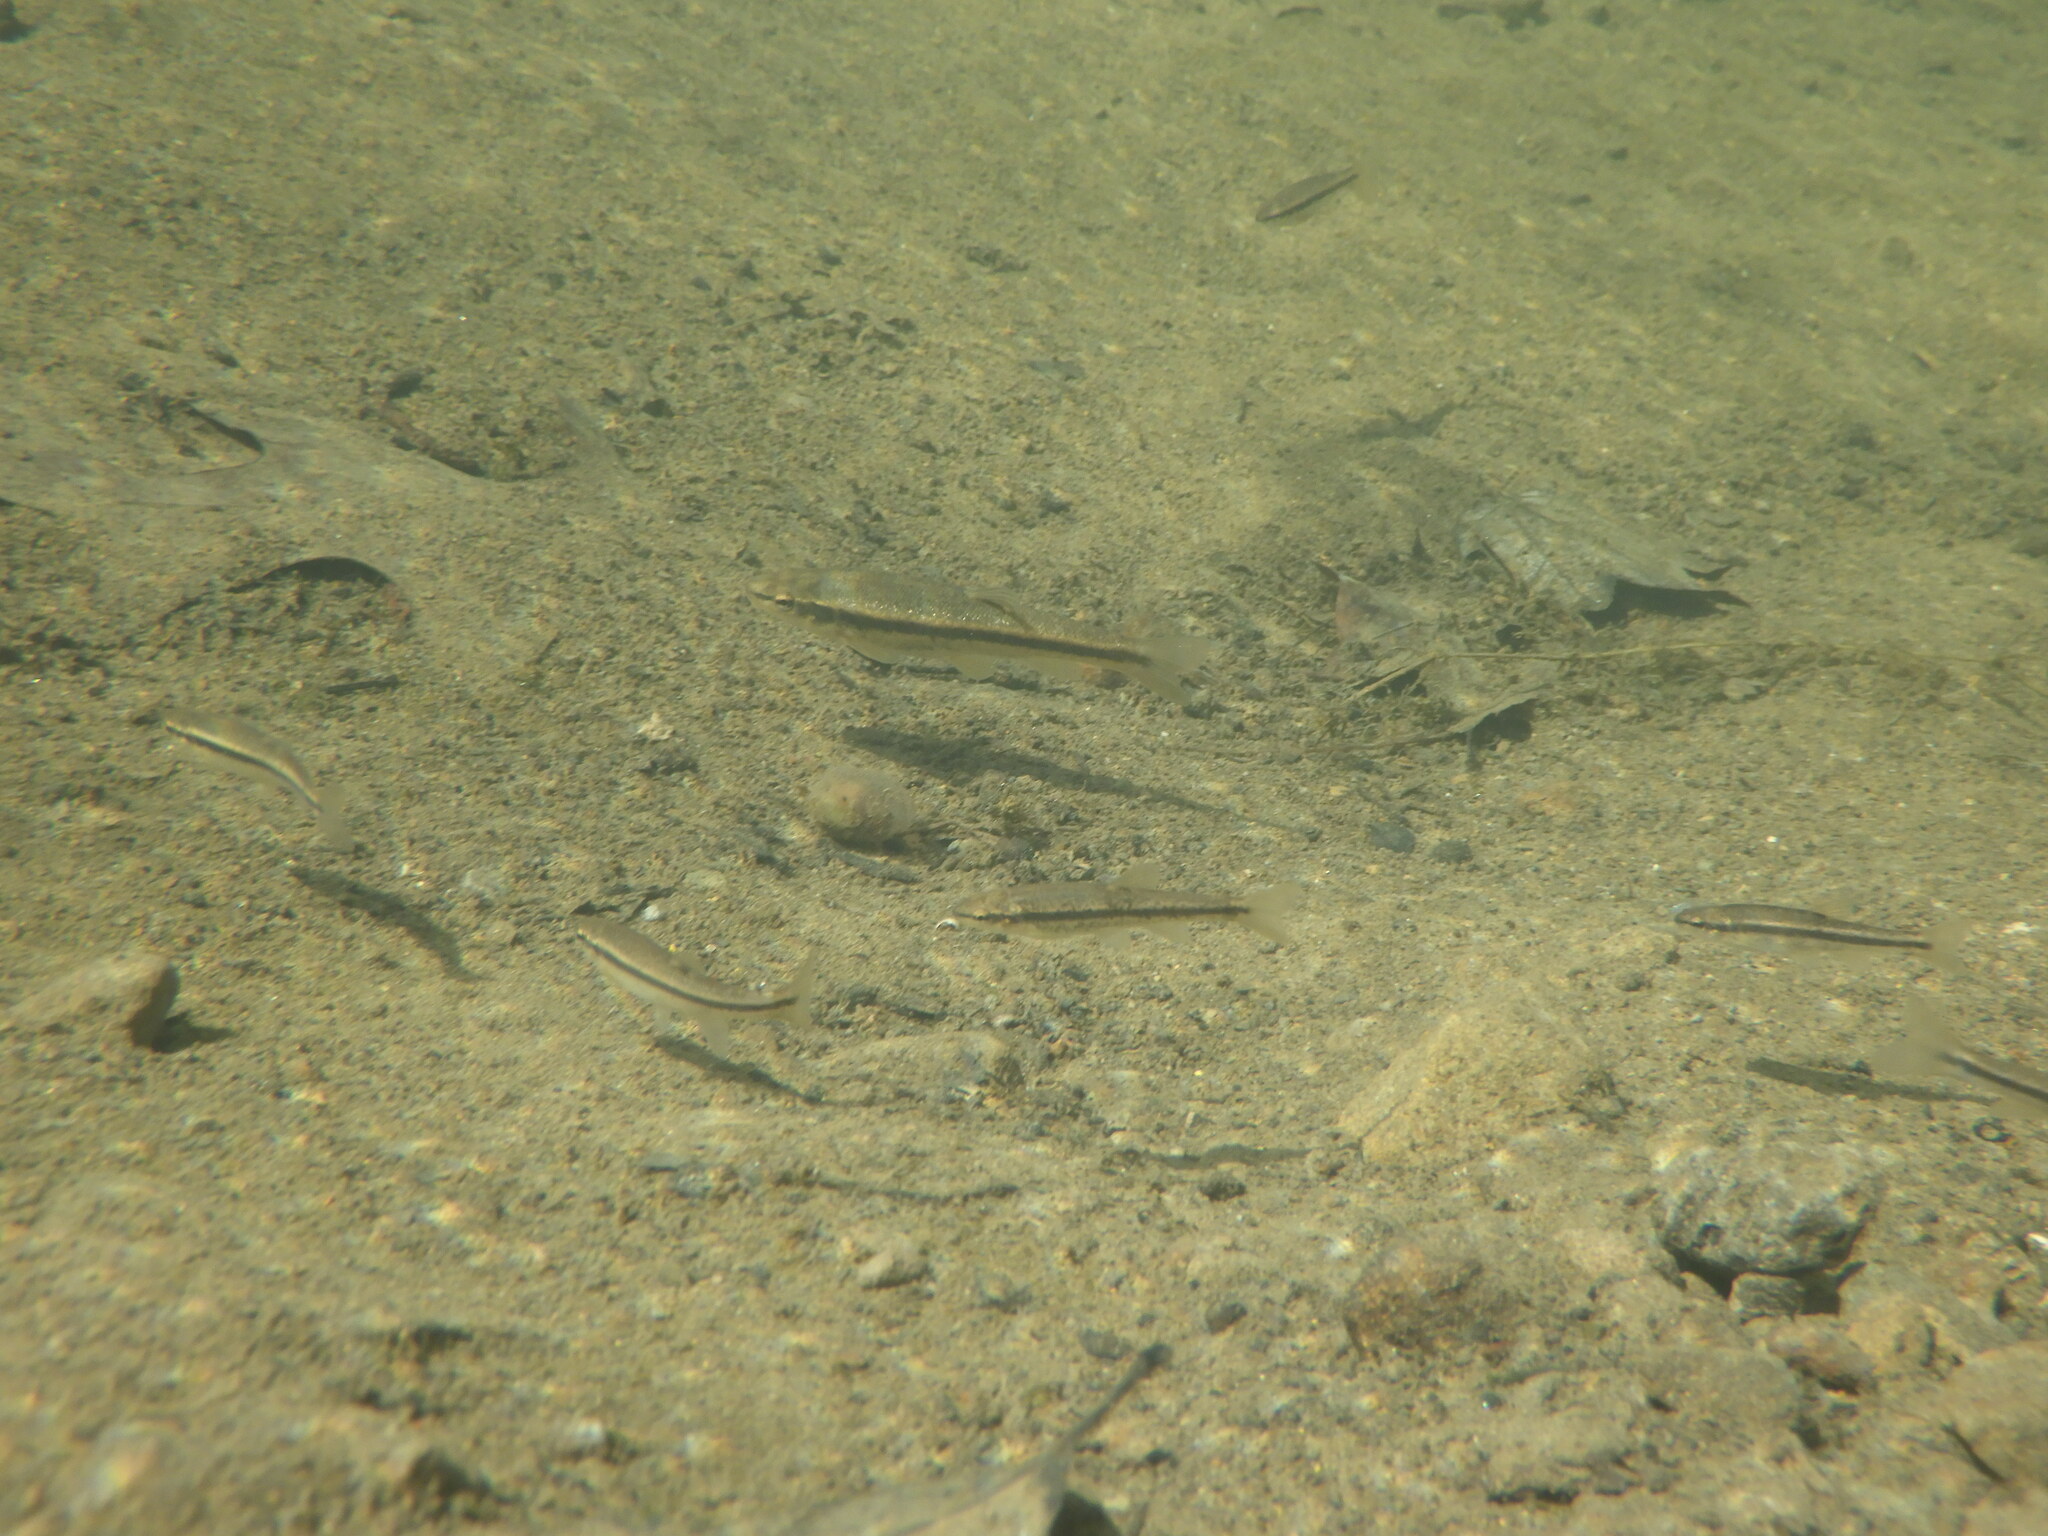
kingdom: Animalia
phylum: Chordata
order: Cypriniformes
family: Cyprinidae
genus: Rhinichthys
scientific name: Rhinichthys obtusus
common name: Western blacknose dace
